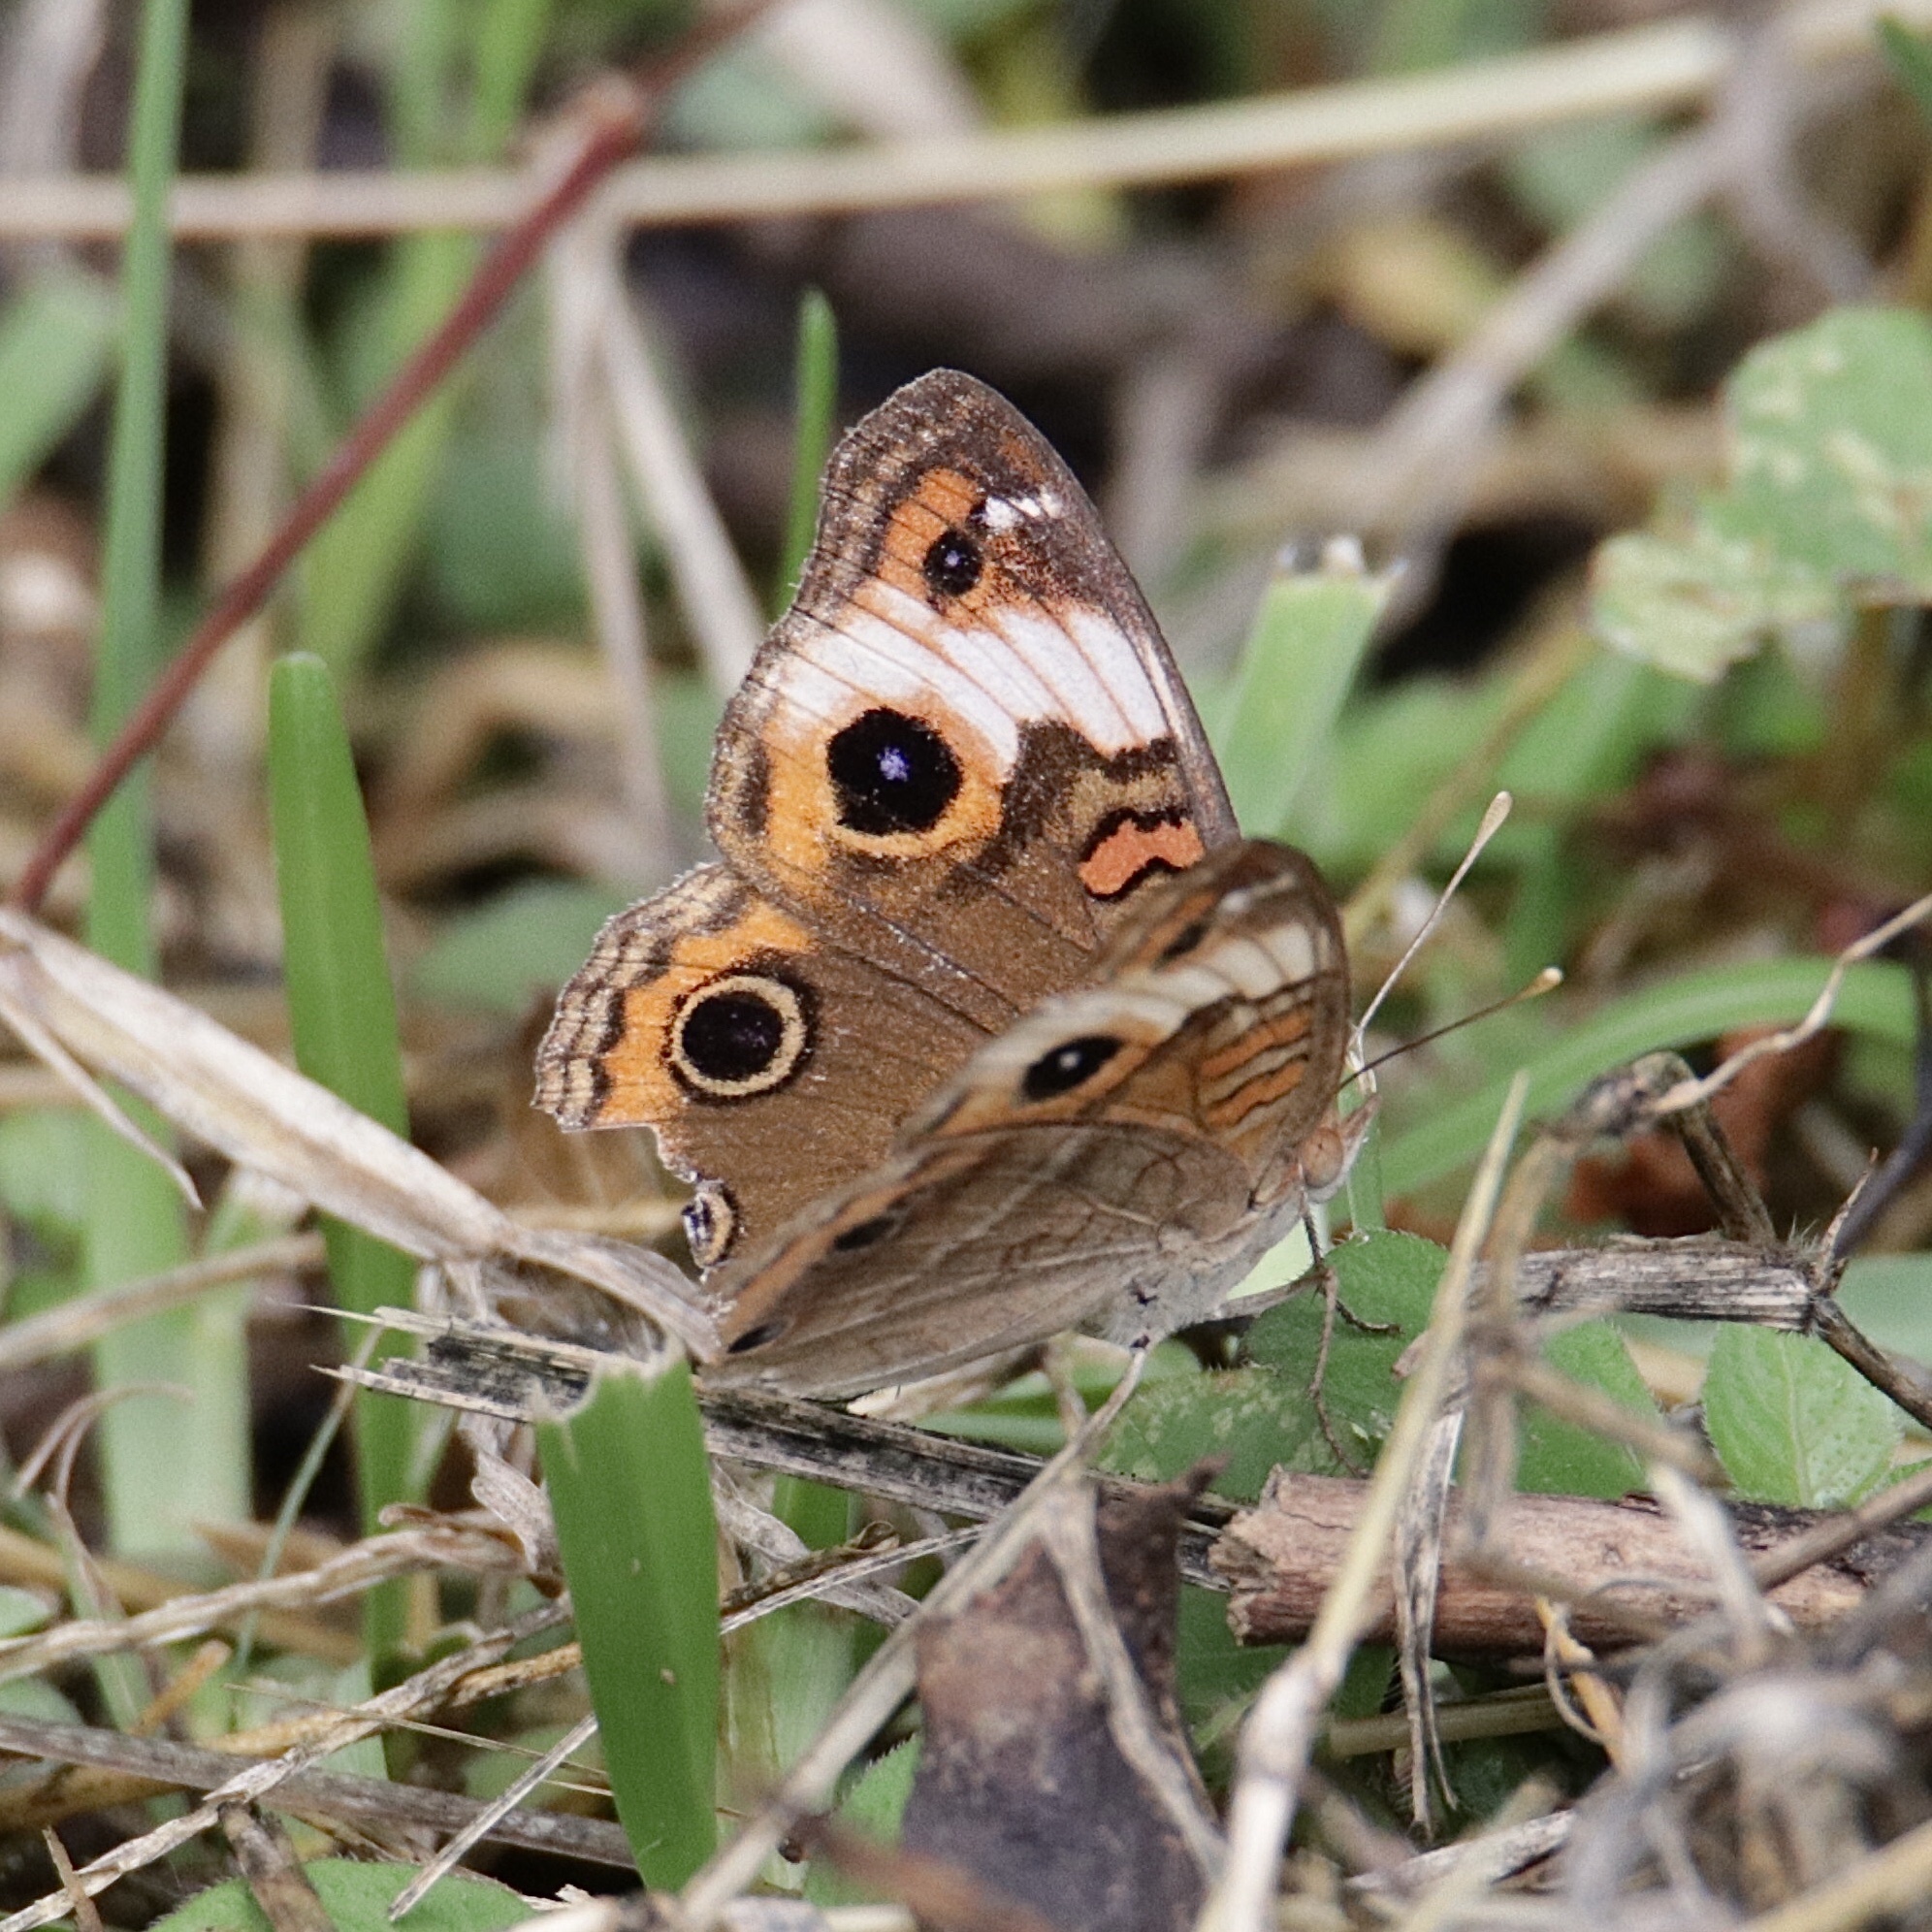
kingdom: Animalia
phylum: Arthropoda
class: Insecta
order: Lepidoptera
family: Nymphalidae
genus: Junonia
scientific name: Junonia lavinia
